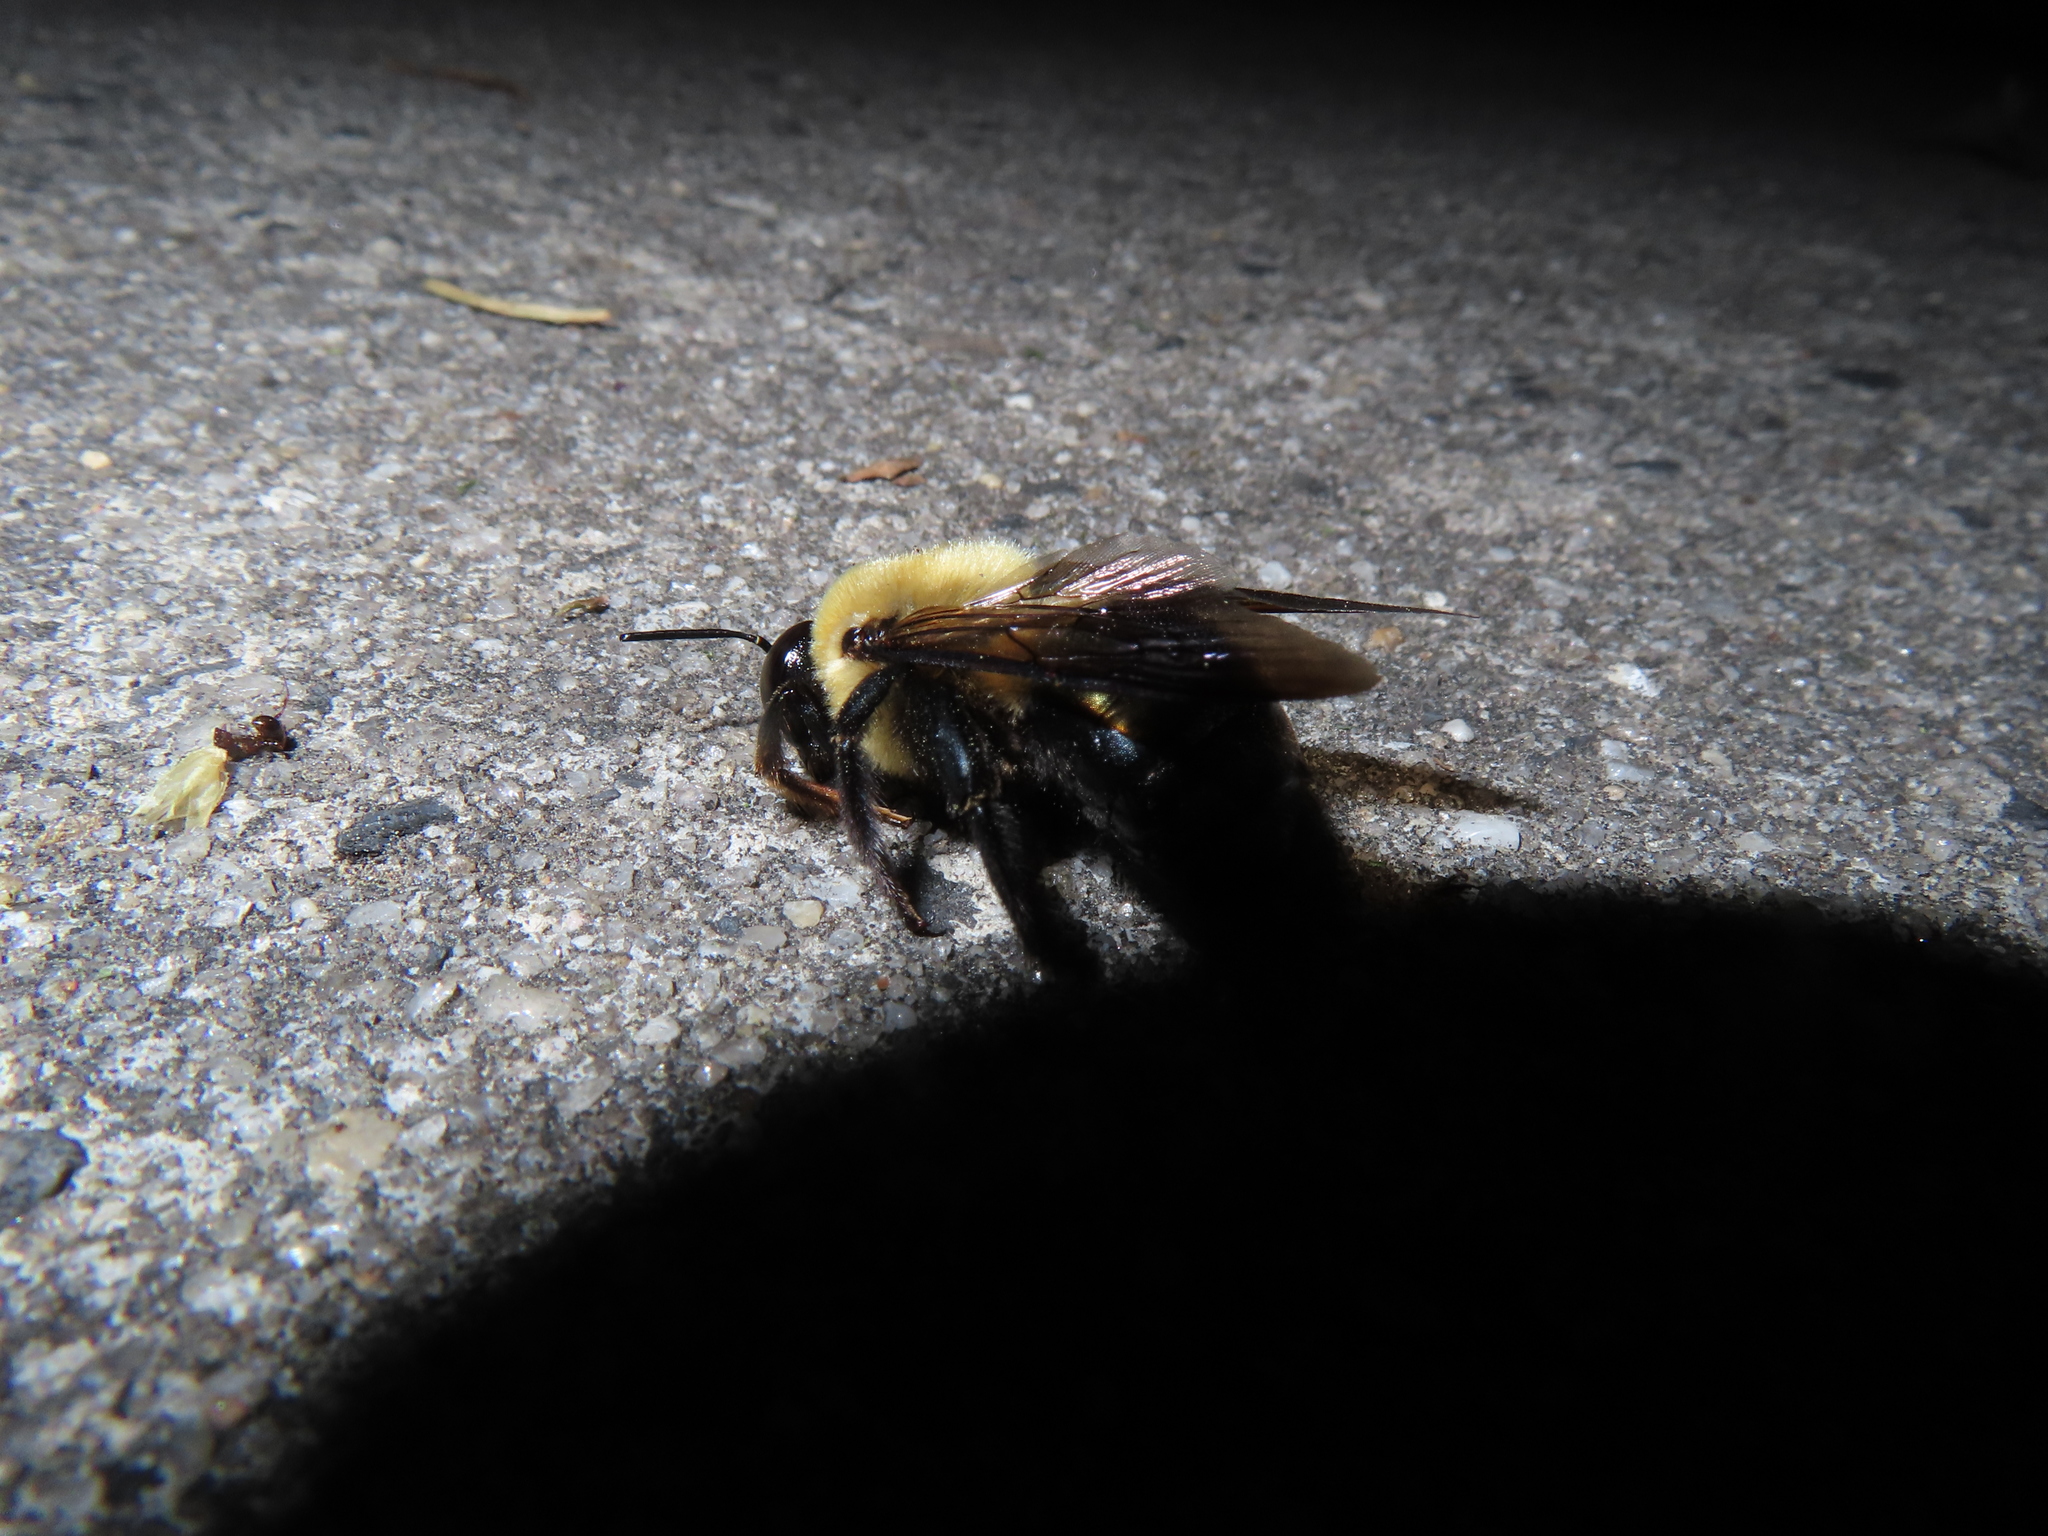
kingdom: Animalia
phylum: Arthropoda
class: Insecta
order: Hymenoptera
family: Apidae
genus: Xylocopa
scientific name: Xylocopa virginica
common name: Carpenter bee
